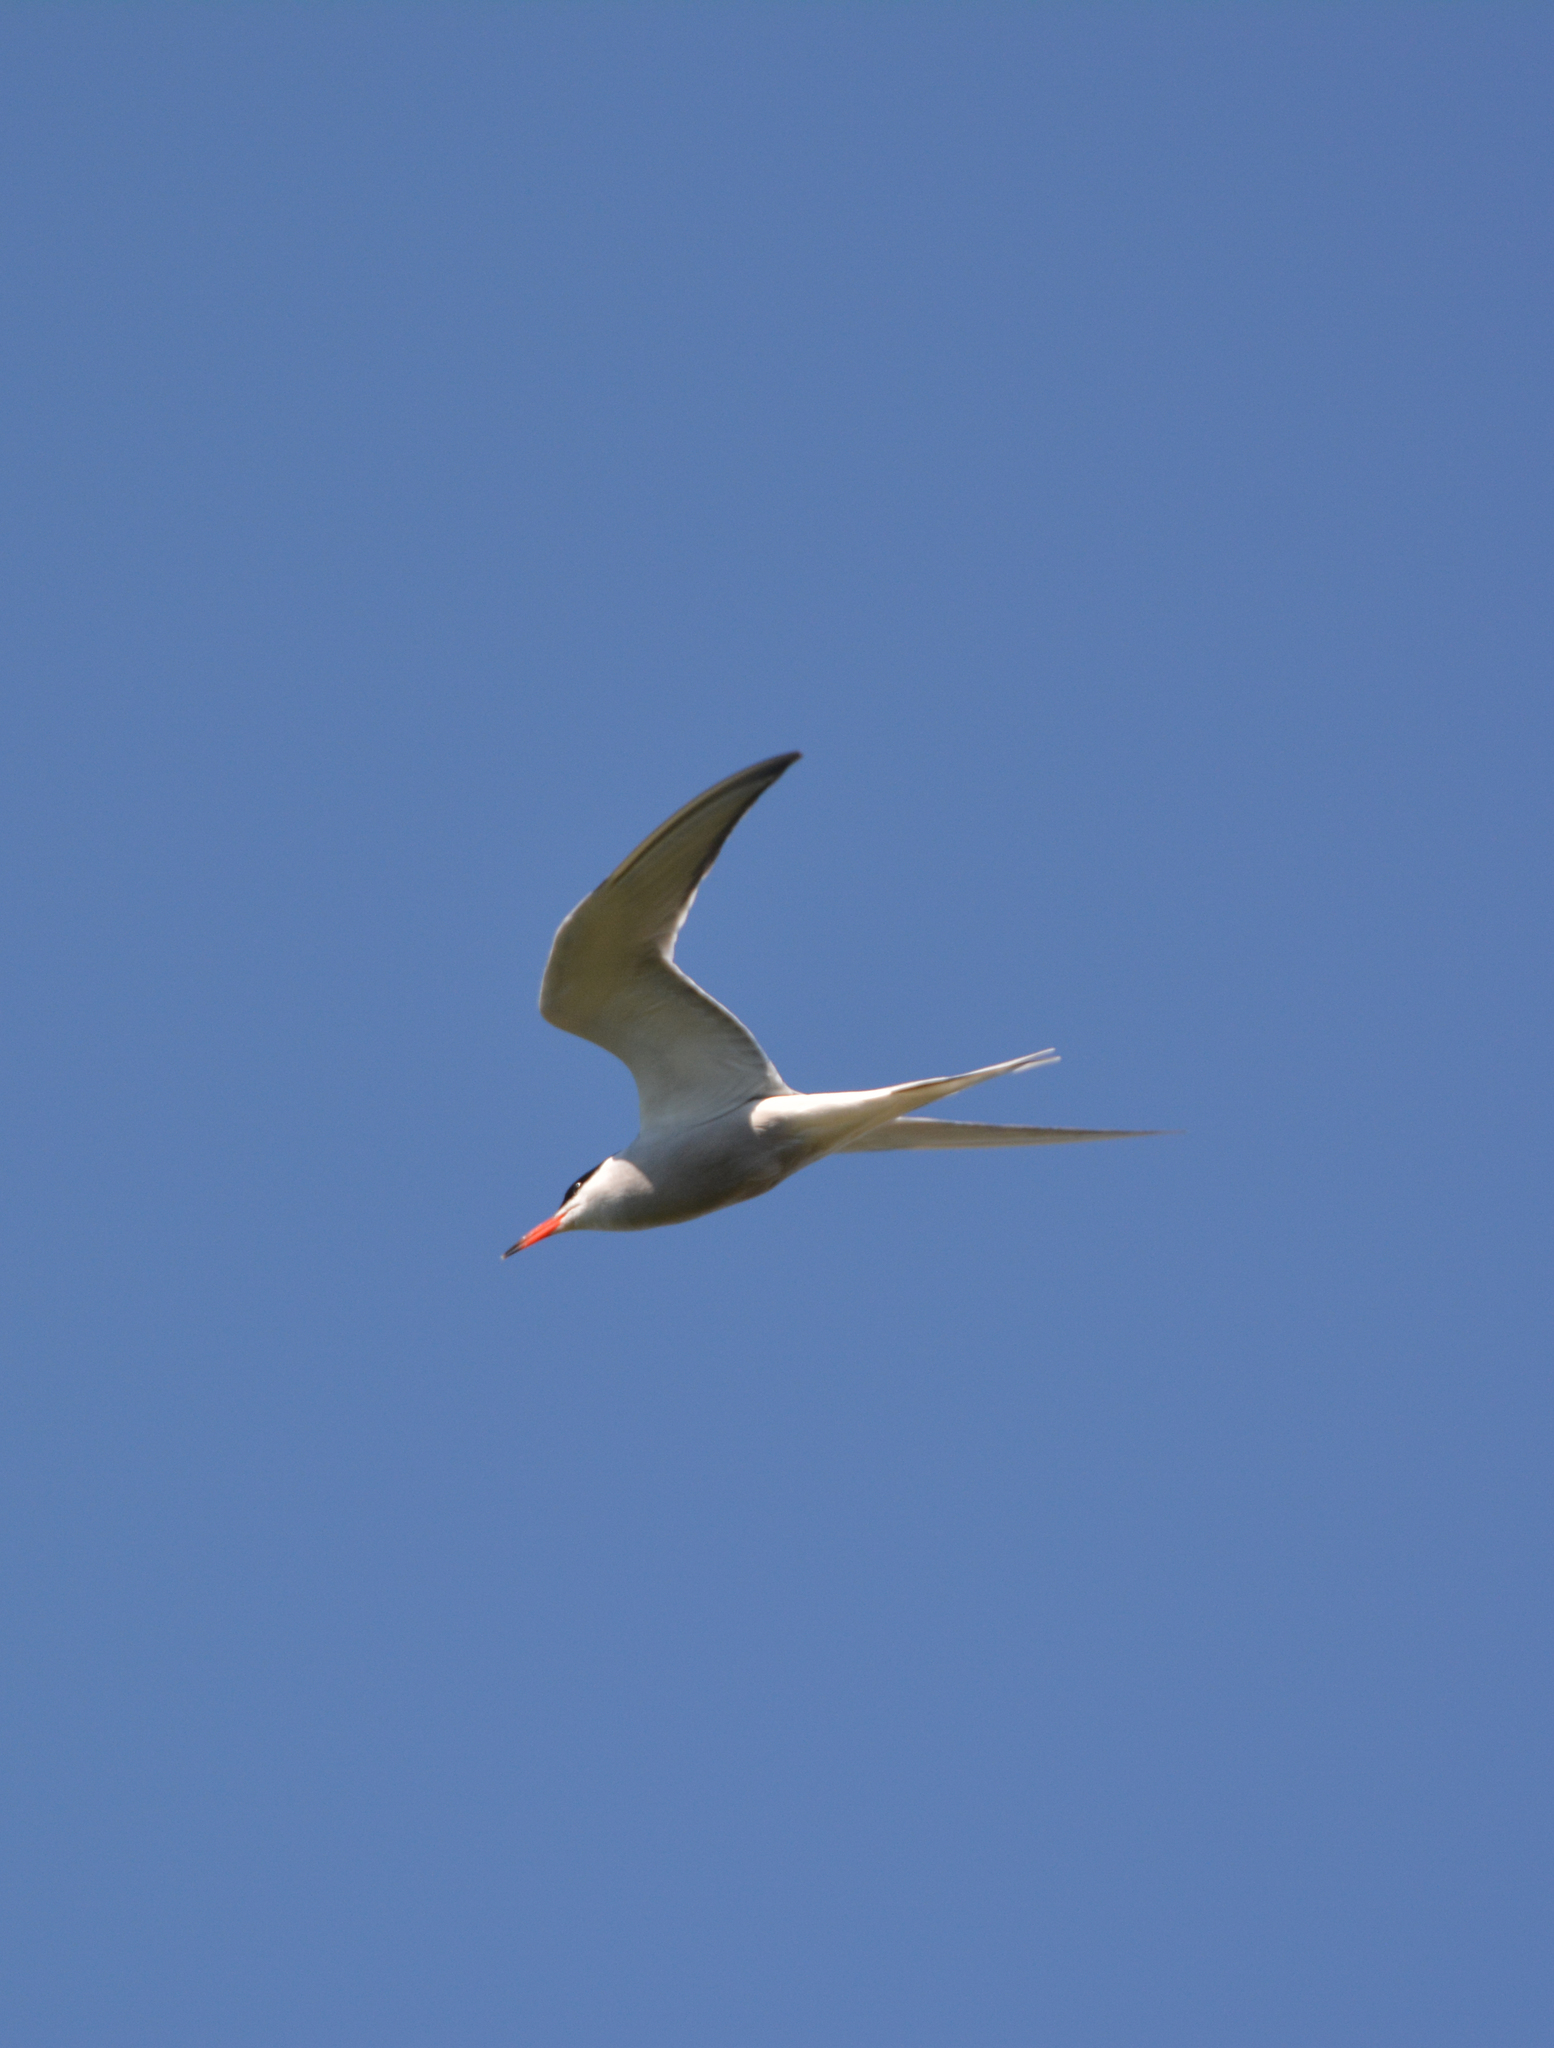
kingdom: Animalia
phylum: Chordata
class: Aves
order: Charadriiformes
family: Laridae
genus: Sterna
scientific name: Sterna hirundo
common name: Common tern
